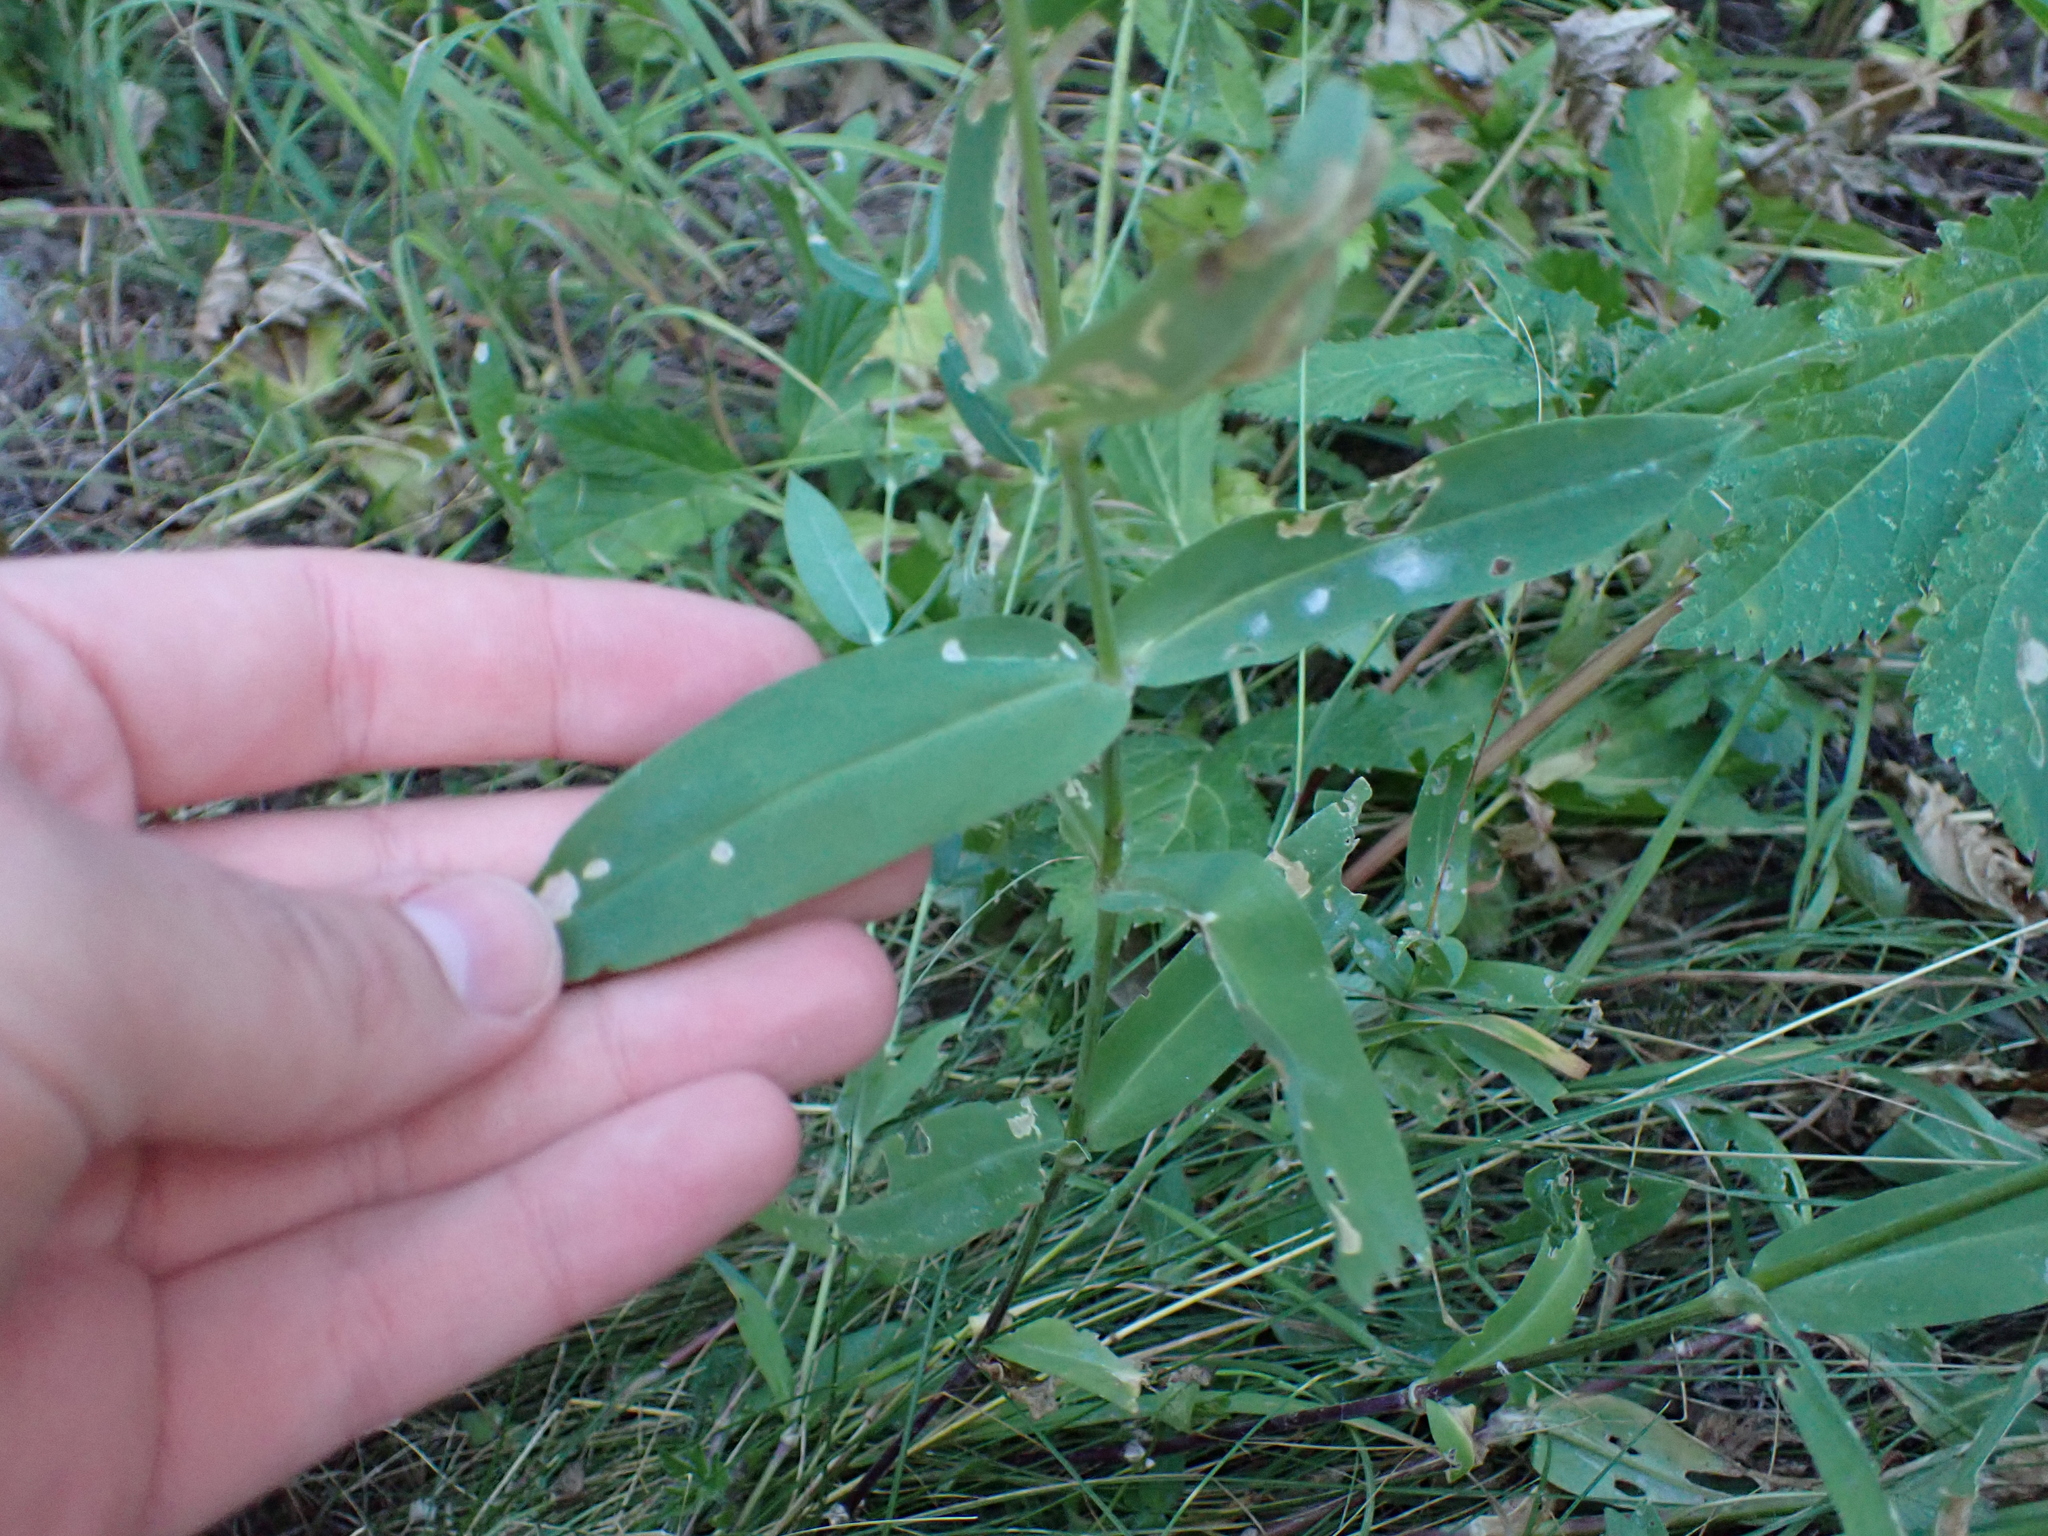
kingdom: Plantae
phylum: Tracheophyta
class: Magnoliopsida
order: Caryophyllales
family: Caryophyllaceae
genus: Silene
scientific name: Silene vulgaris
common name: Bladder campion
